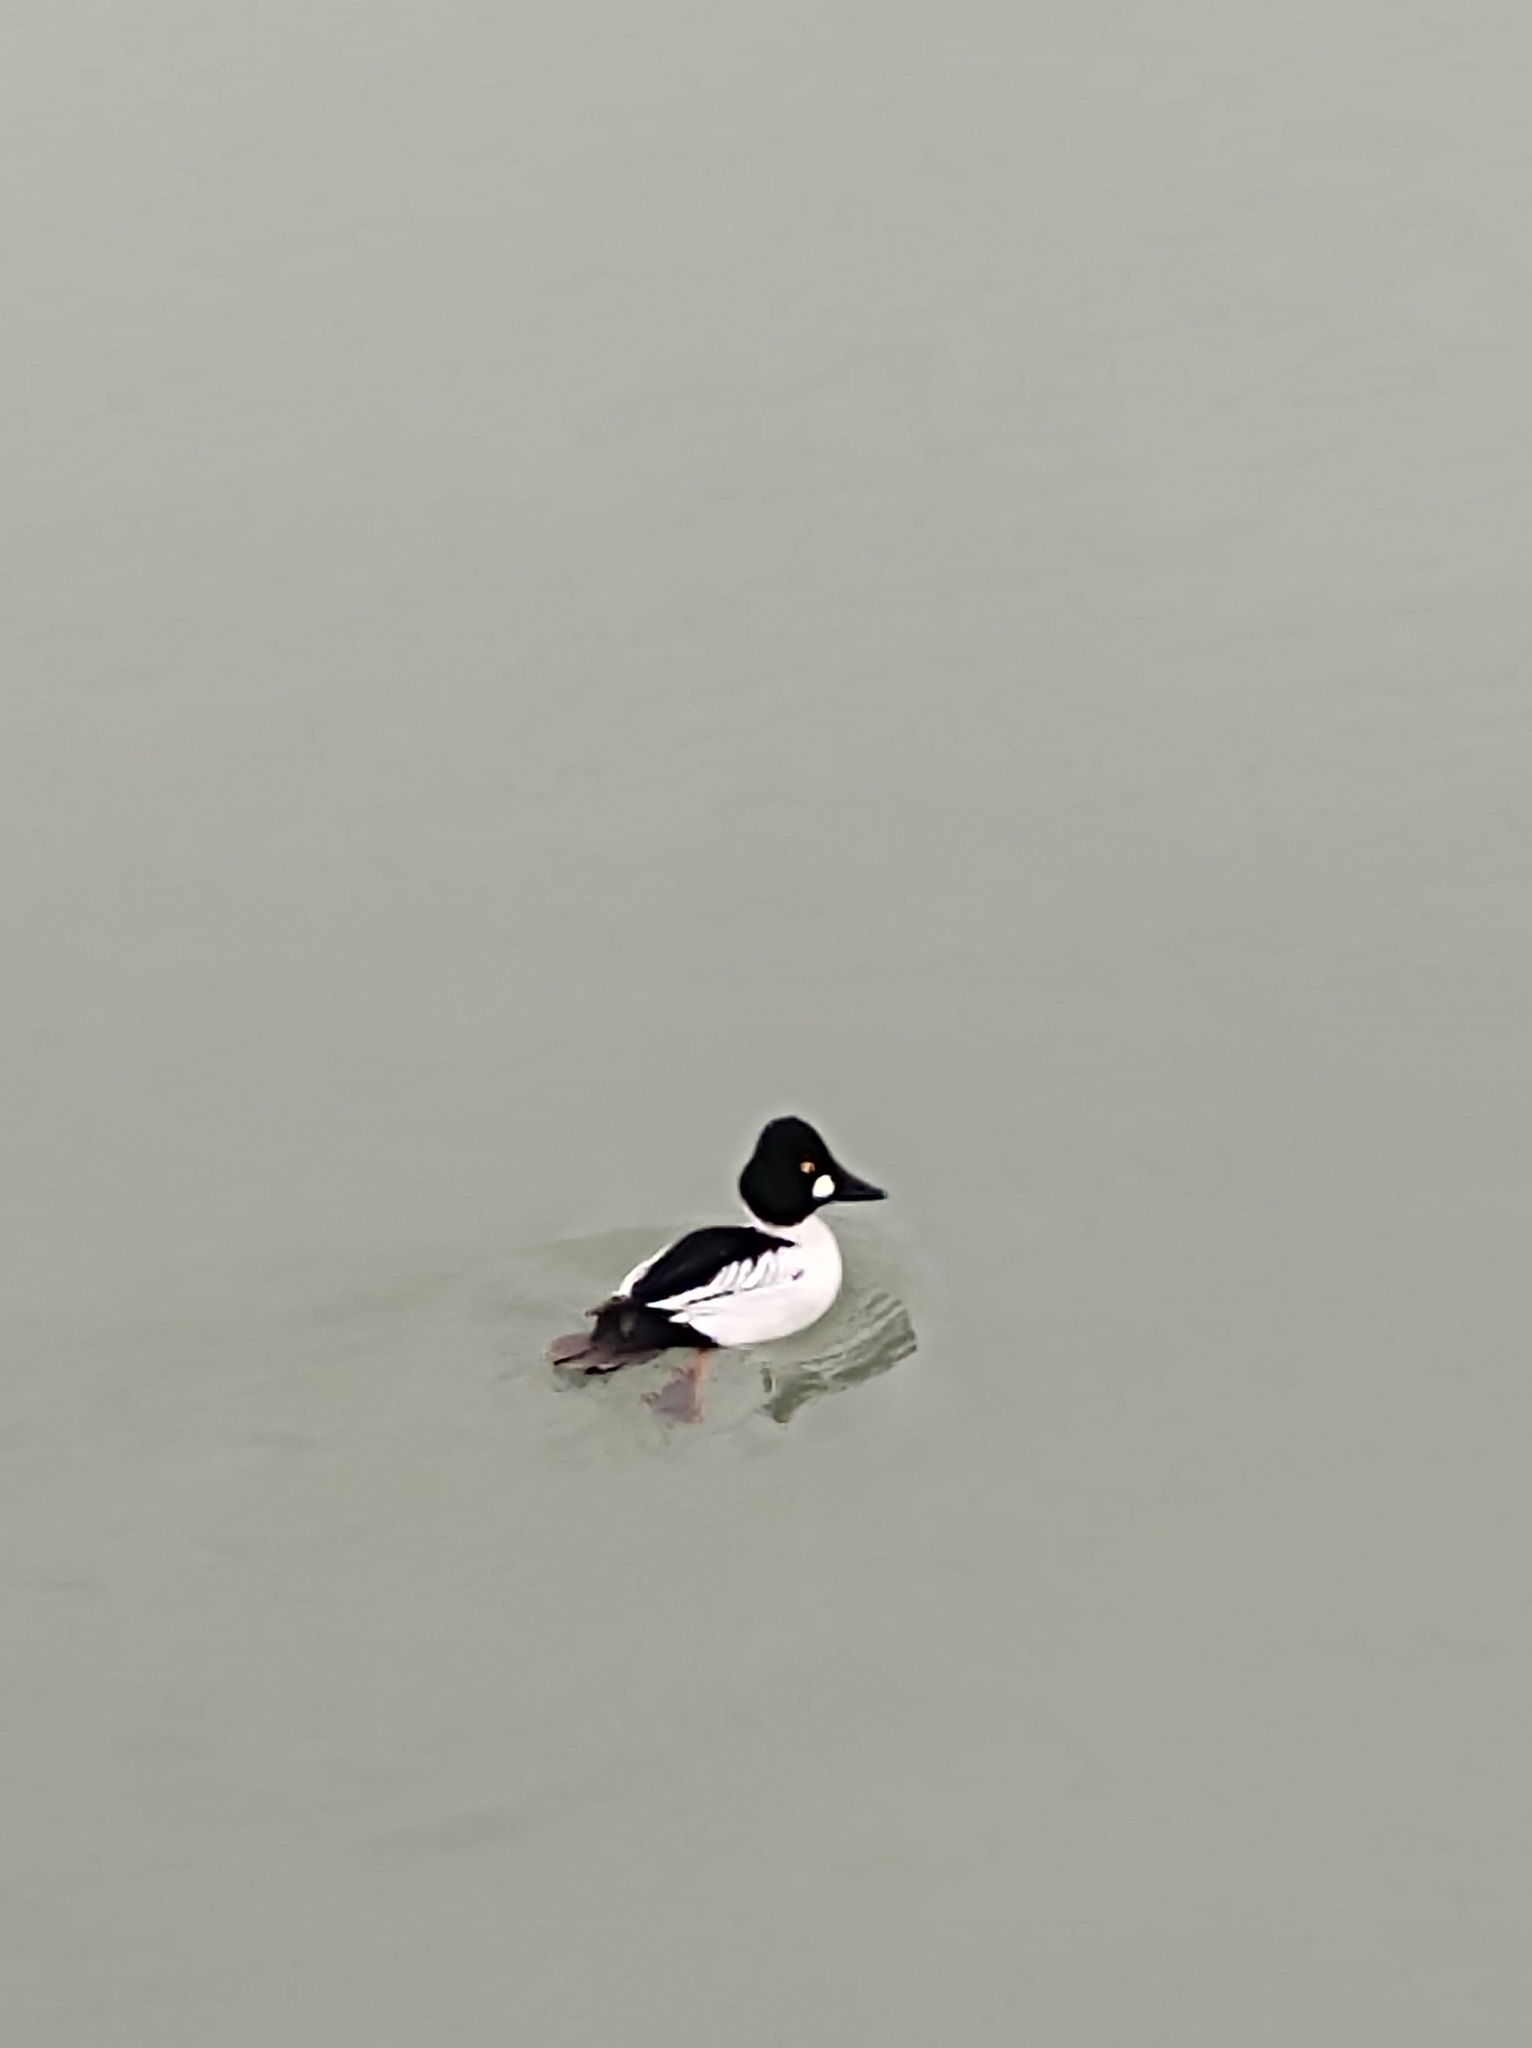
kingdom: Animalia
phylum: Chordata
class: Aves
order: Anseriformes
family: Anatidae
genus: Bucephala
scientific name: Bucephala clangula
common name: Common goldeneye
